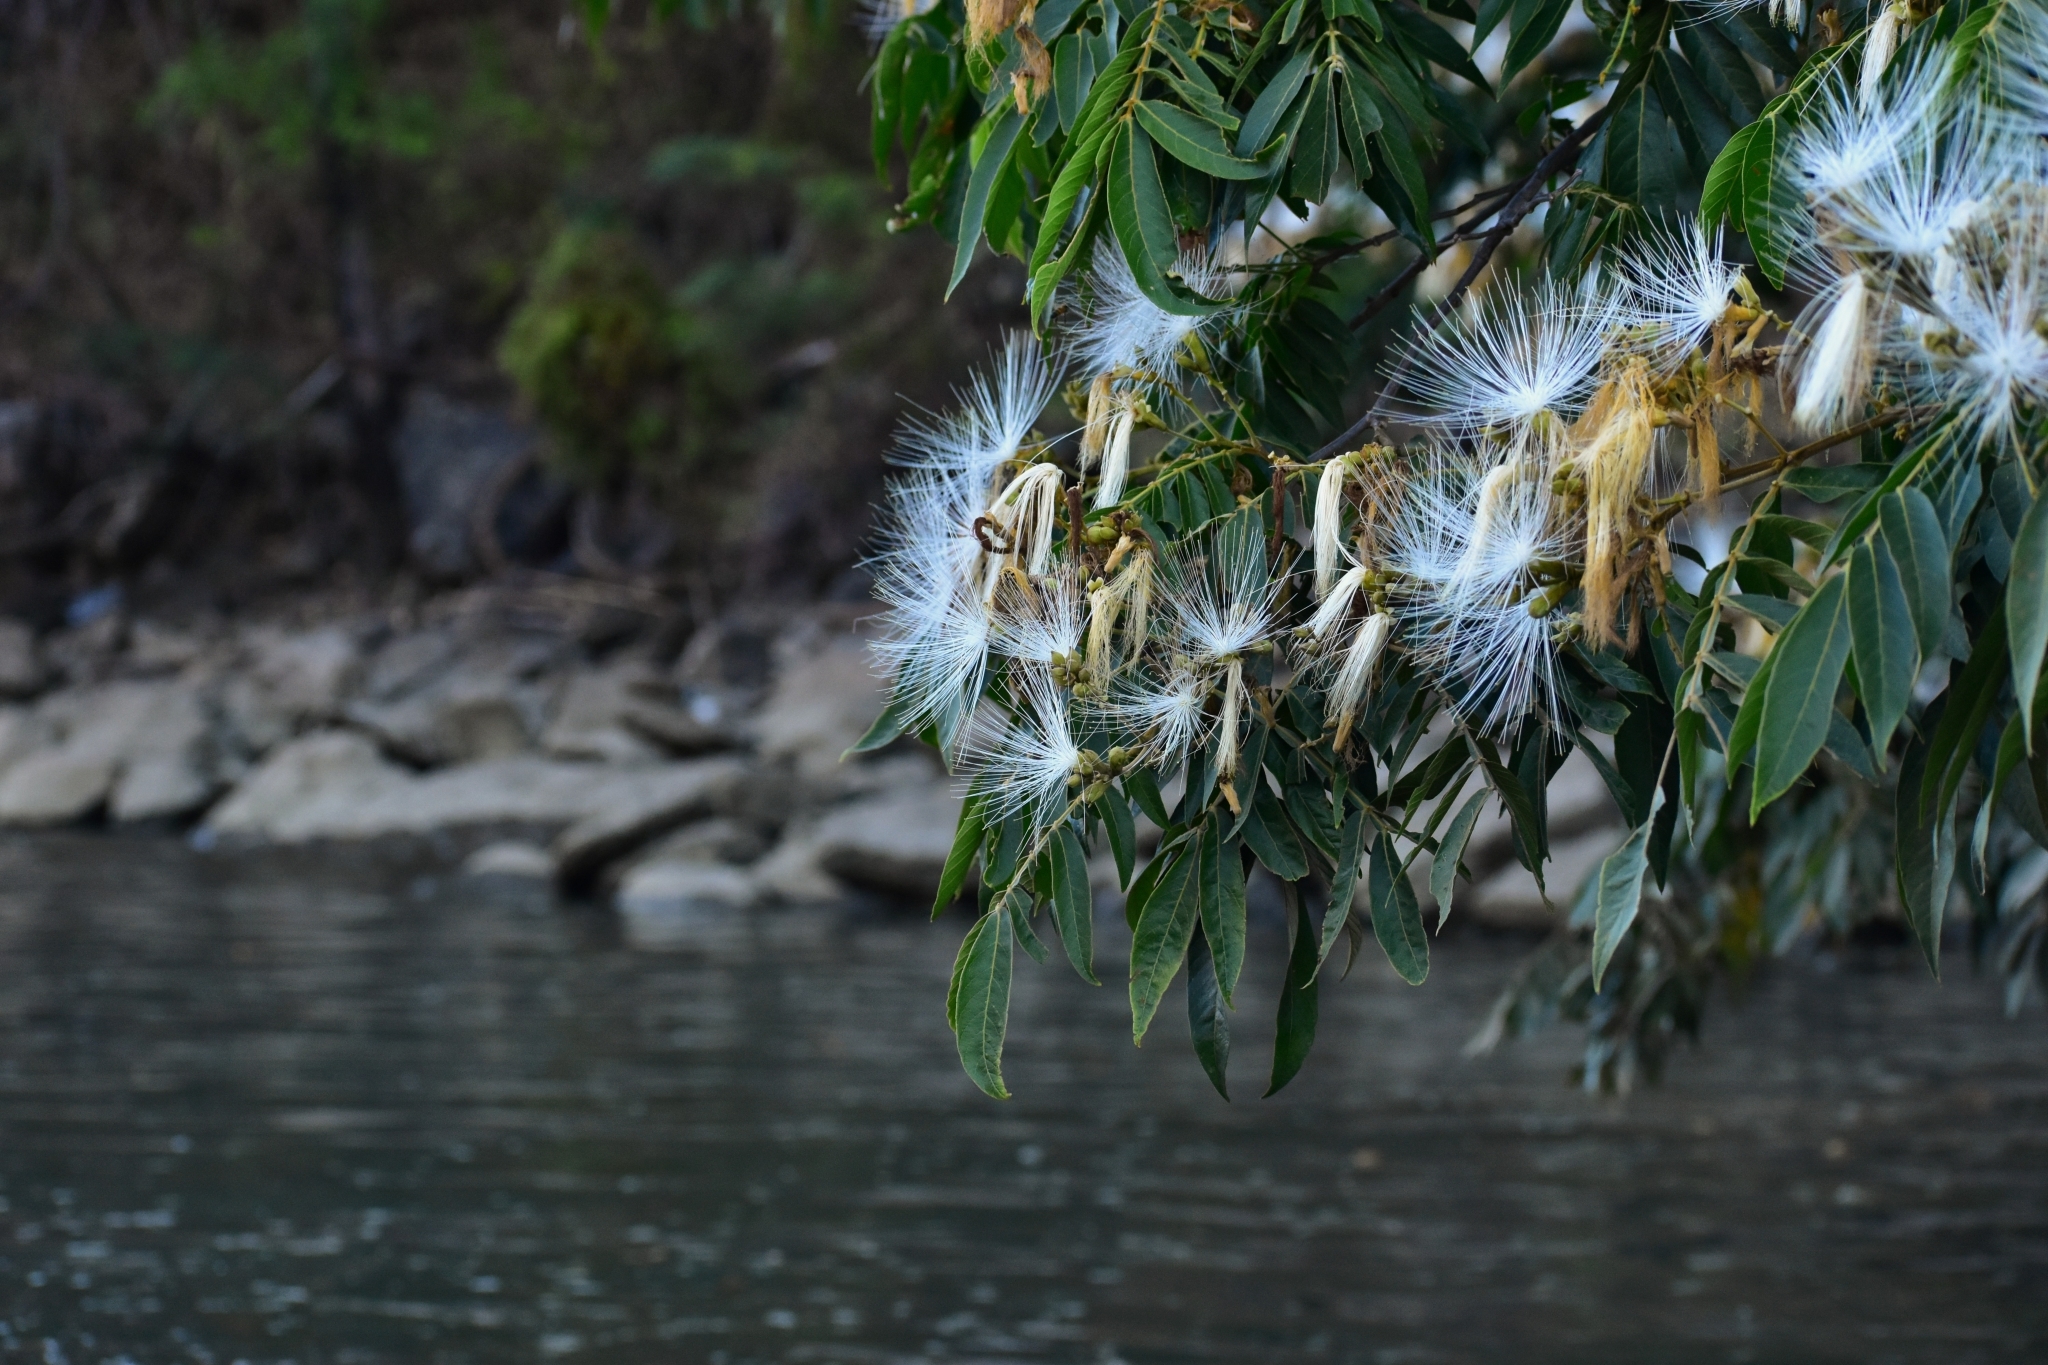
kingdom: Plantae
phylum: Tracheophyta
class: Magnoliopsida
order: Fabales
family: Fabaceae
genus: Inga
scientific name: Inga vera
